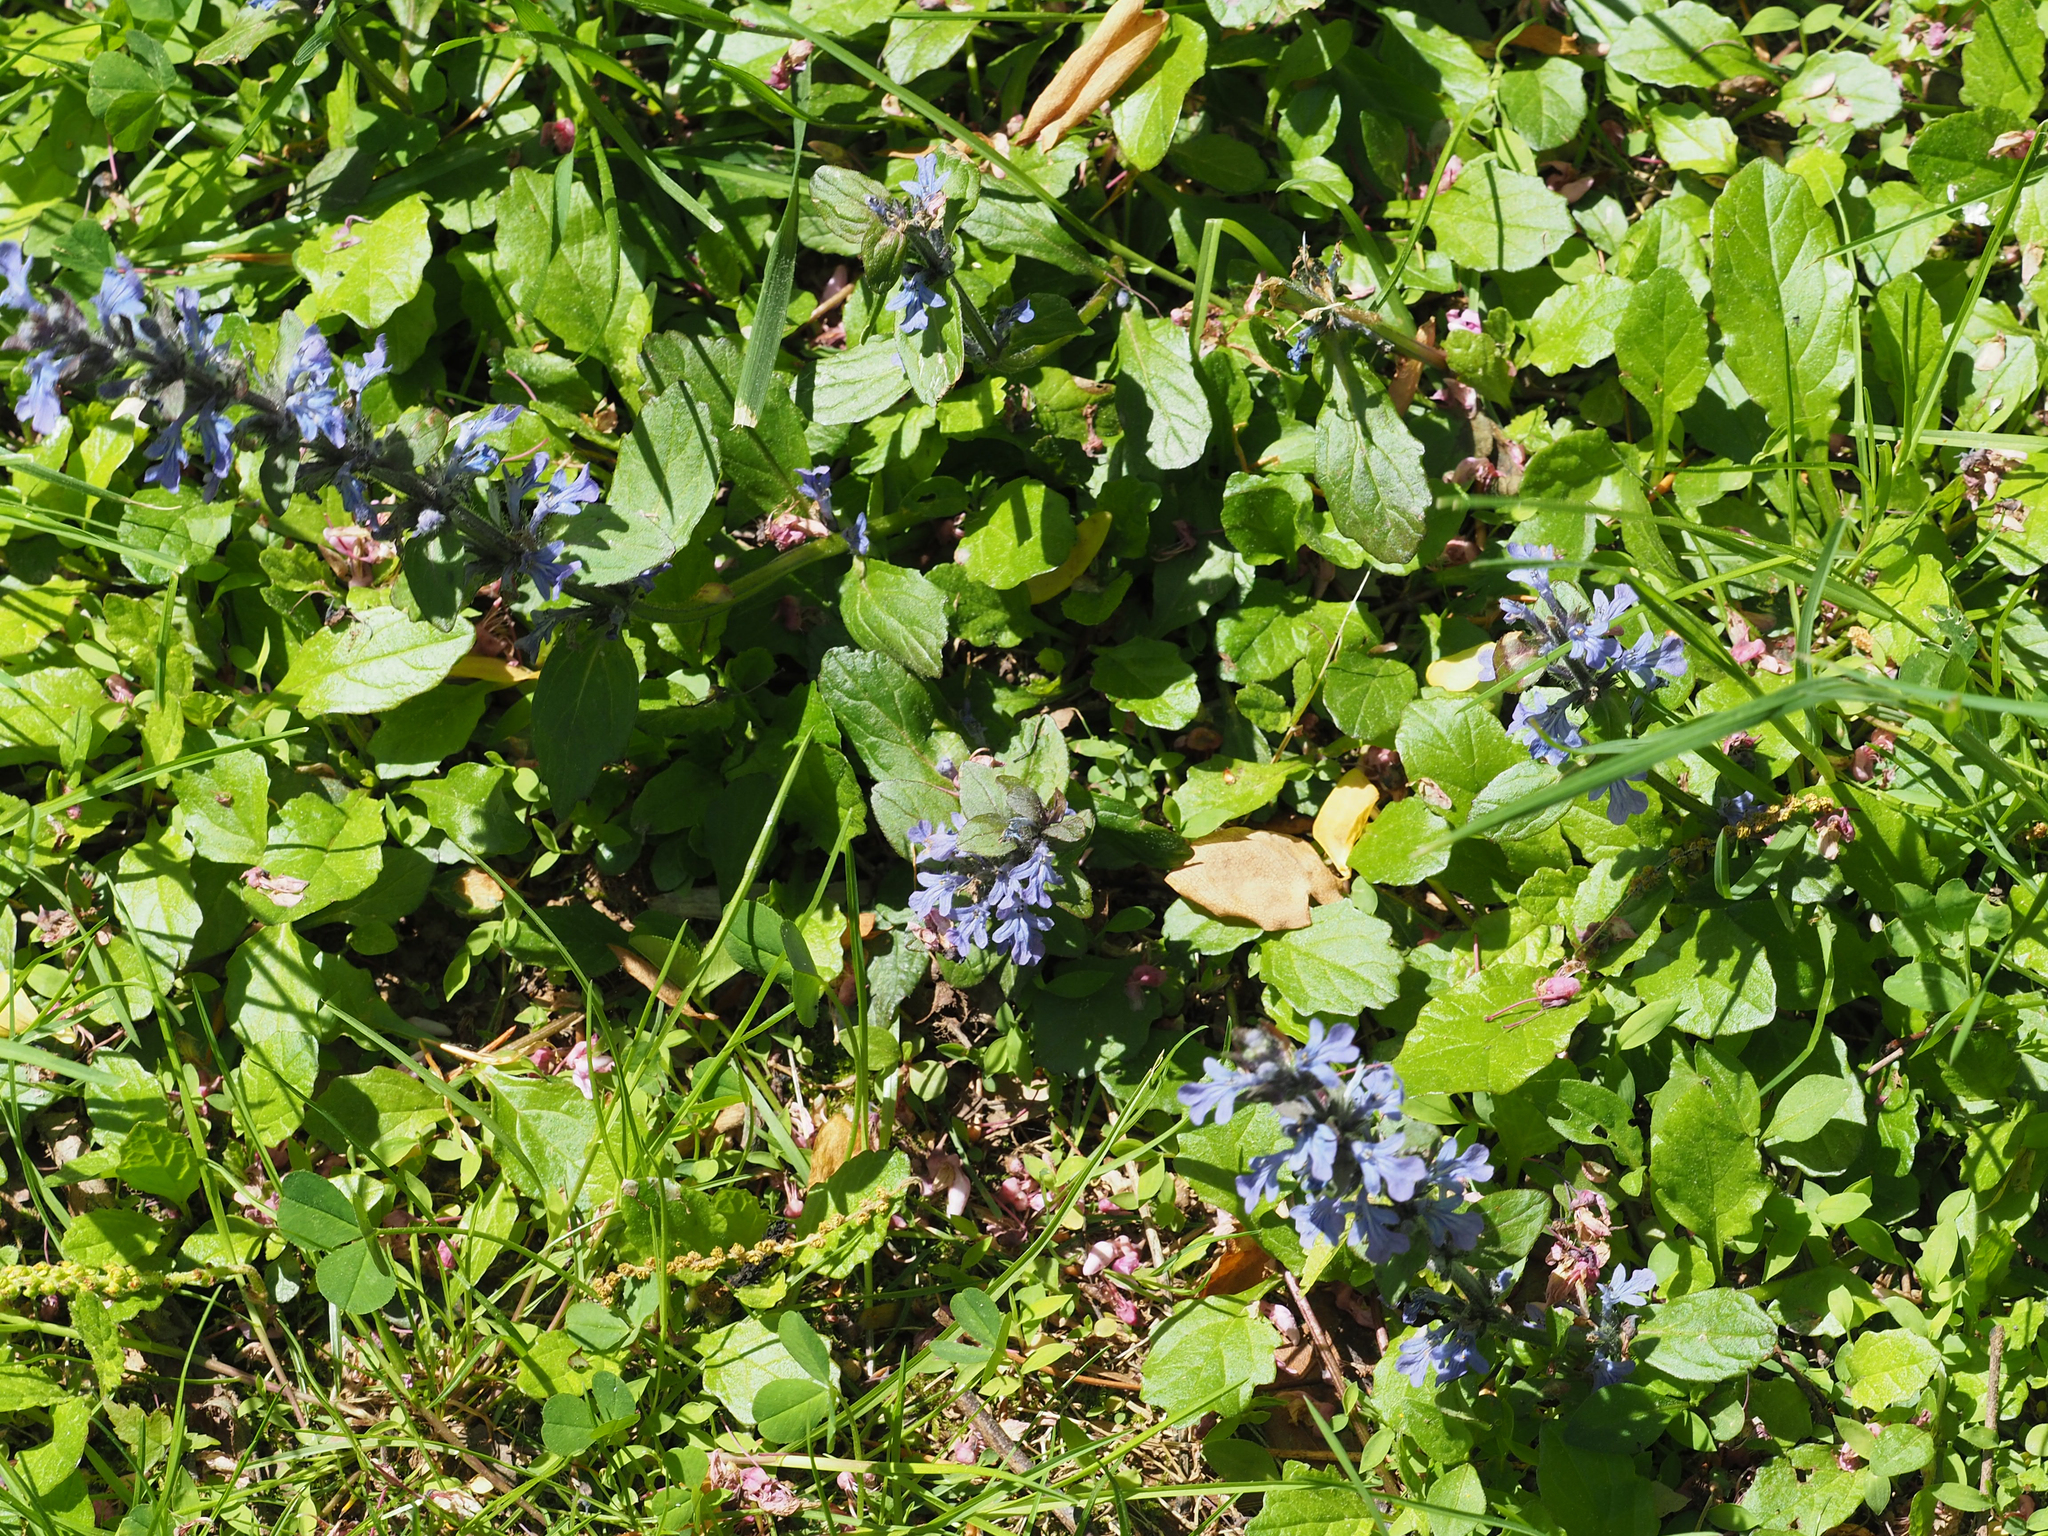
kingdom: Plantae
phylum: Tracheophyta
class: Magnoliopsida
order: Lamiales
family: Lamiaceae
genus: Ajuga
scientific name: Ajuga reptans
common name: Bugle
